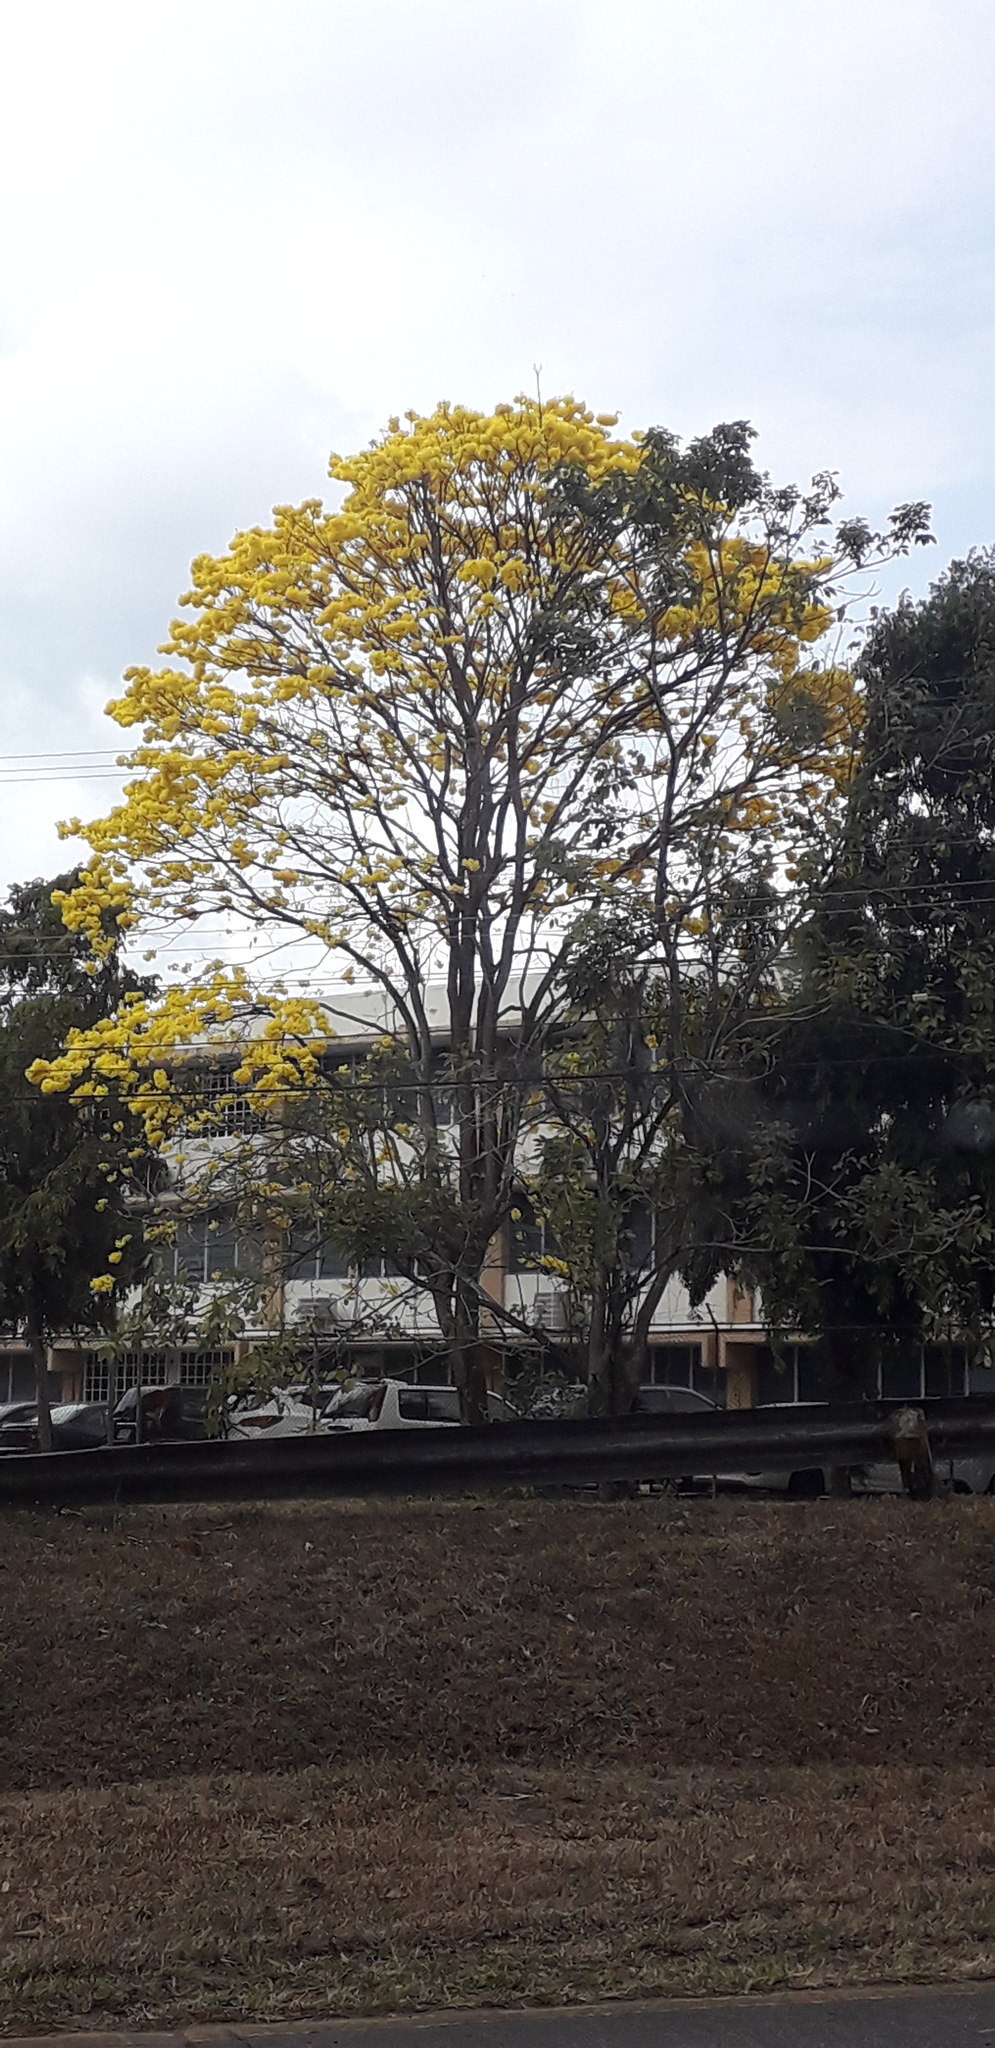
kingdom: Plantae
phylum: Tracheophyta
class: Magnoliopsida
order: Lamiales
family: Bignoniaceae
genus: Handroanthus
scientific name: Handroanthus guayacan
